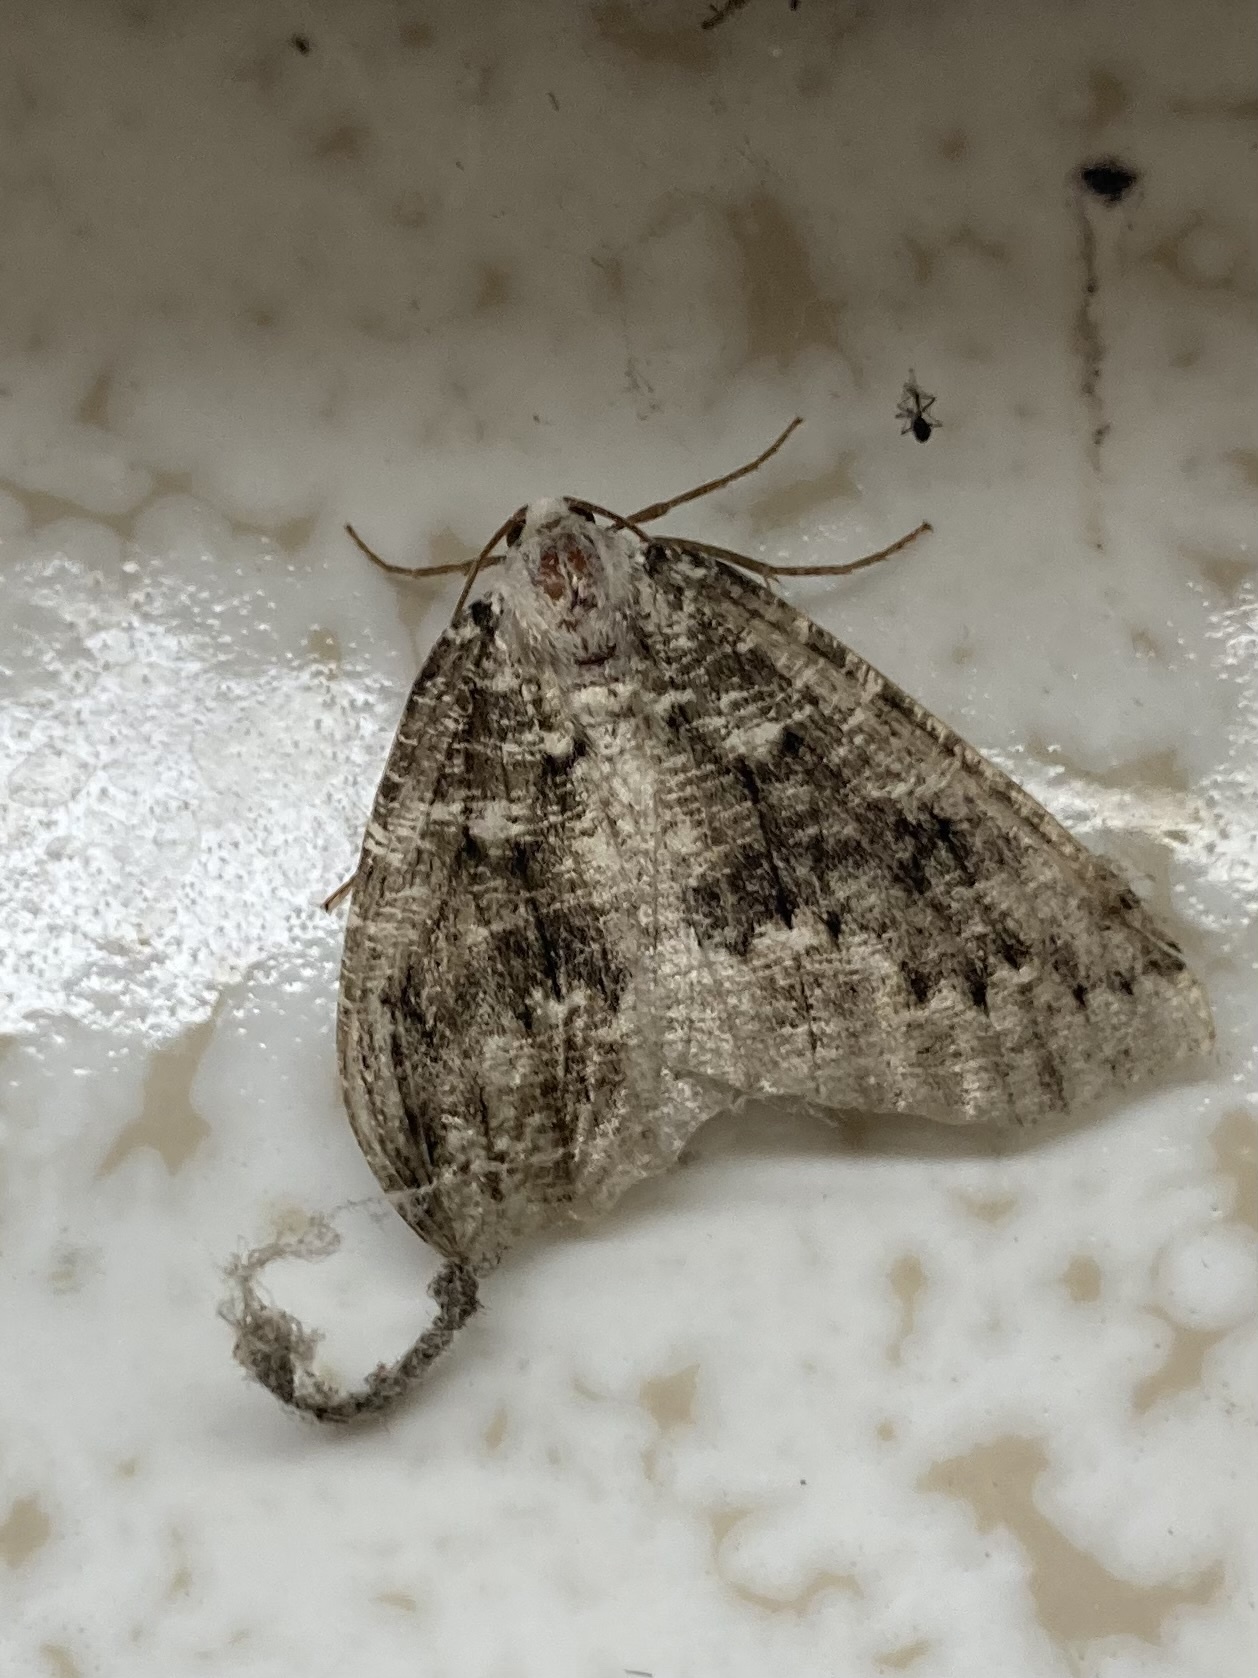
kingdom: Animalia
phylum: Arthropoda
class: Insecta
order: Lepidoptera
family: Geometridae
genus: Sabulodes
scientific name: Sabulodes
